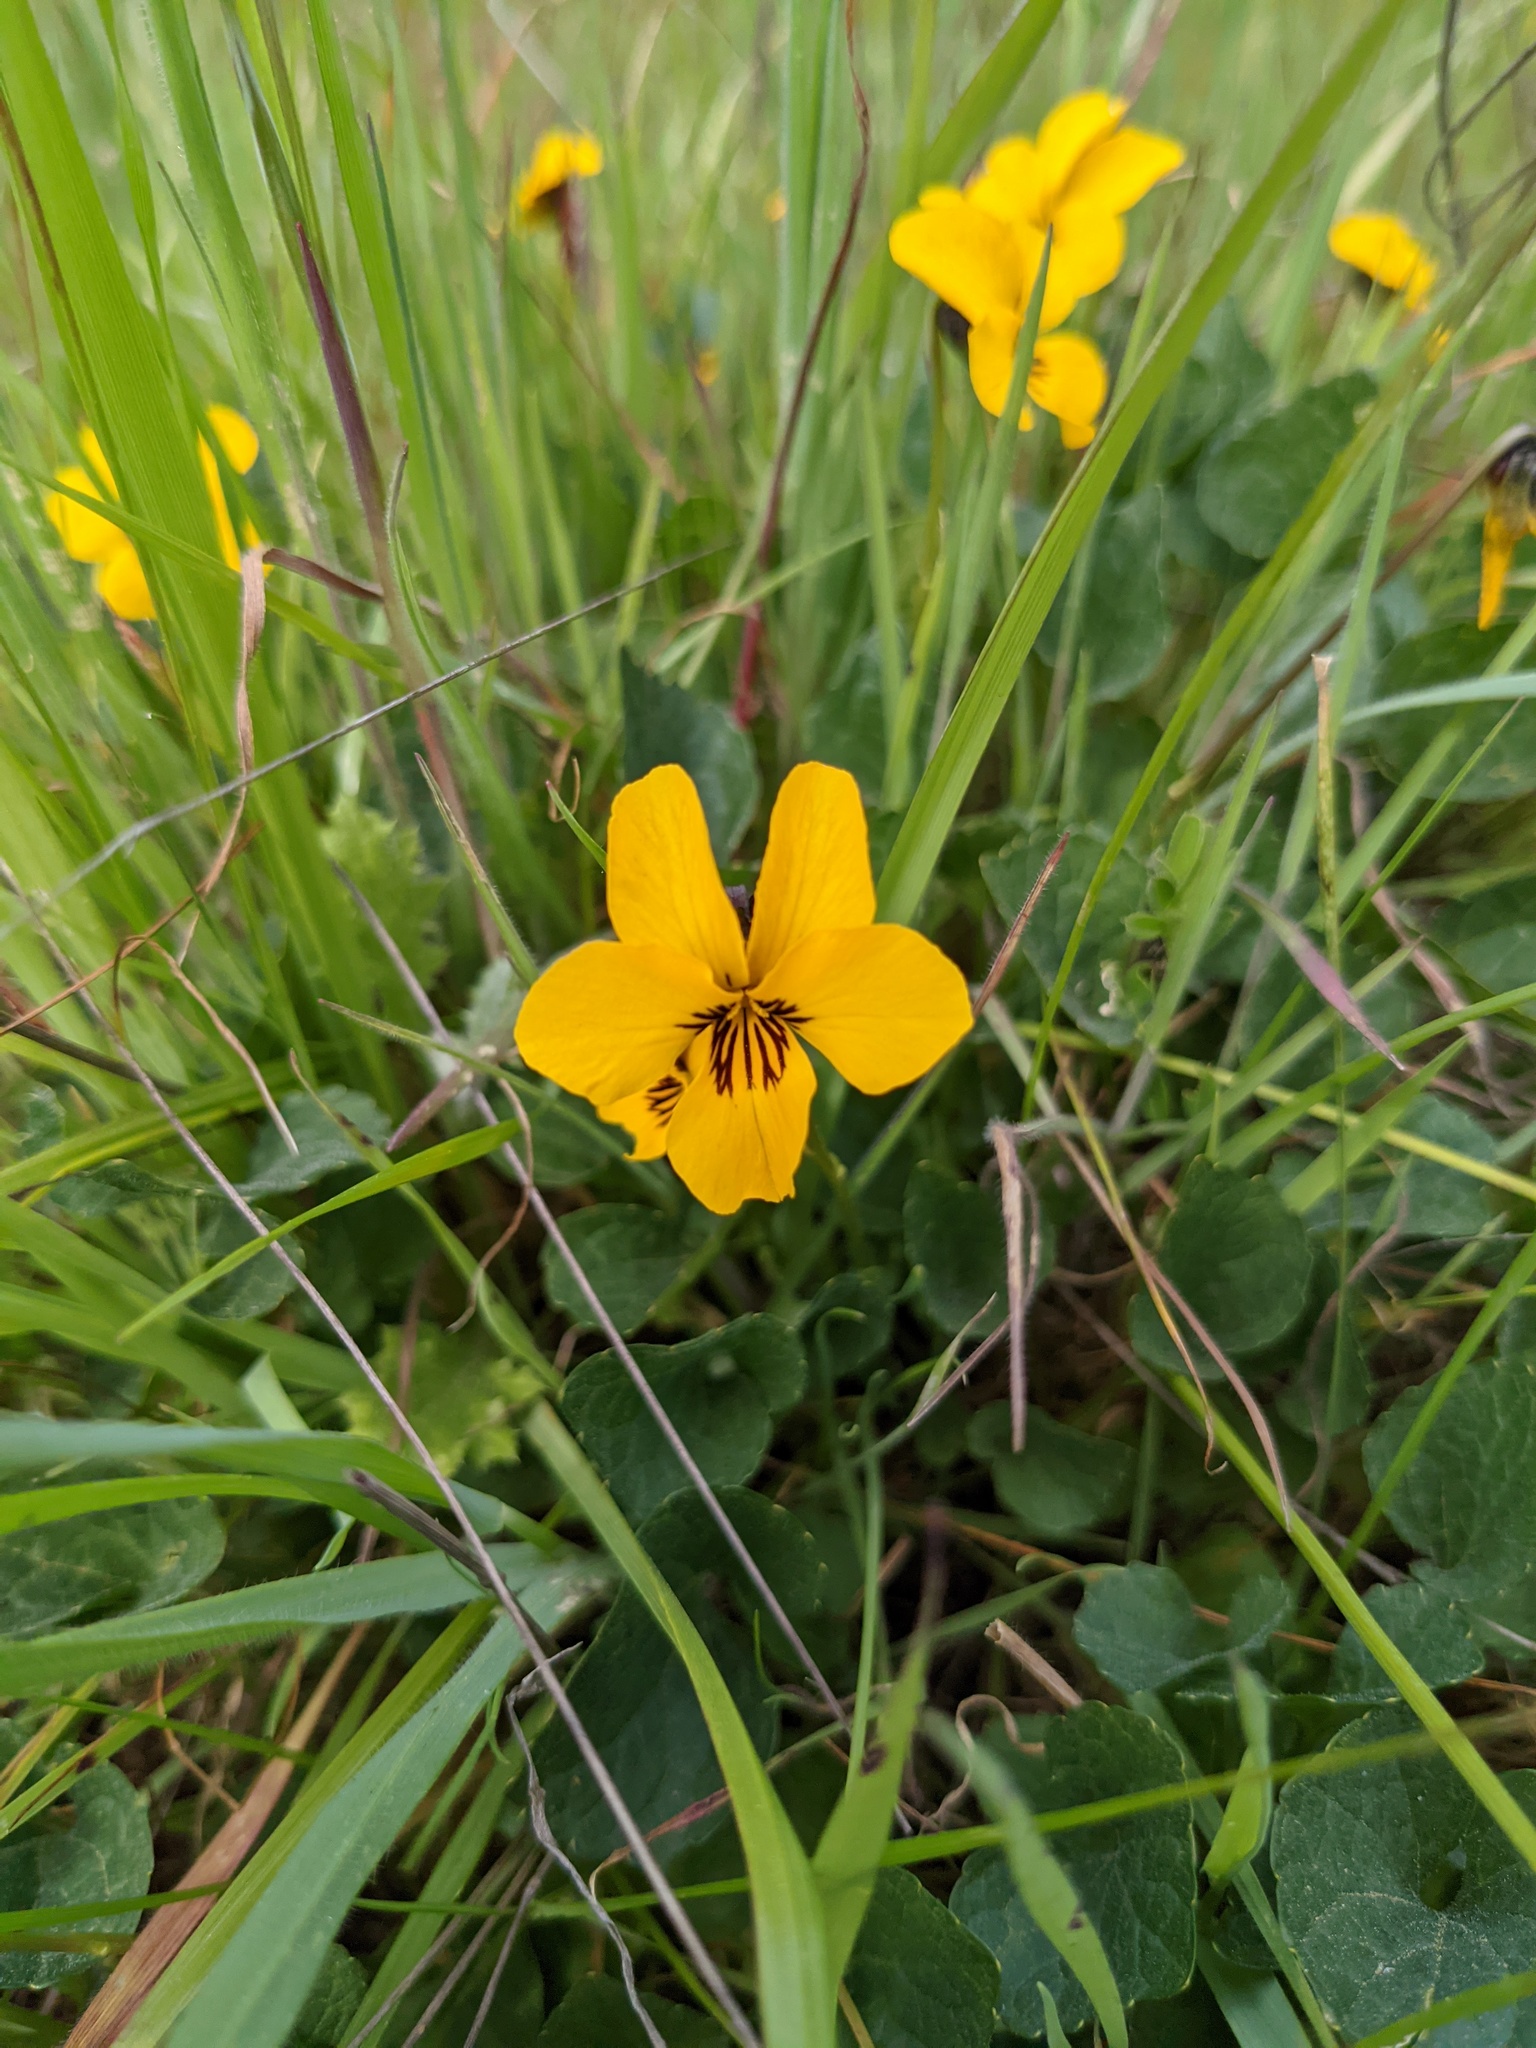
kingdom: Plantae
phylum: Tracheophyta
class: Magnoliopsida
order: Malpighiales
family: Violaceae
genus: Viola
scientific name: Viola pedunculata
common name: California golden violet
